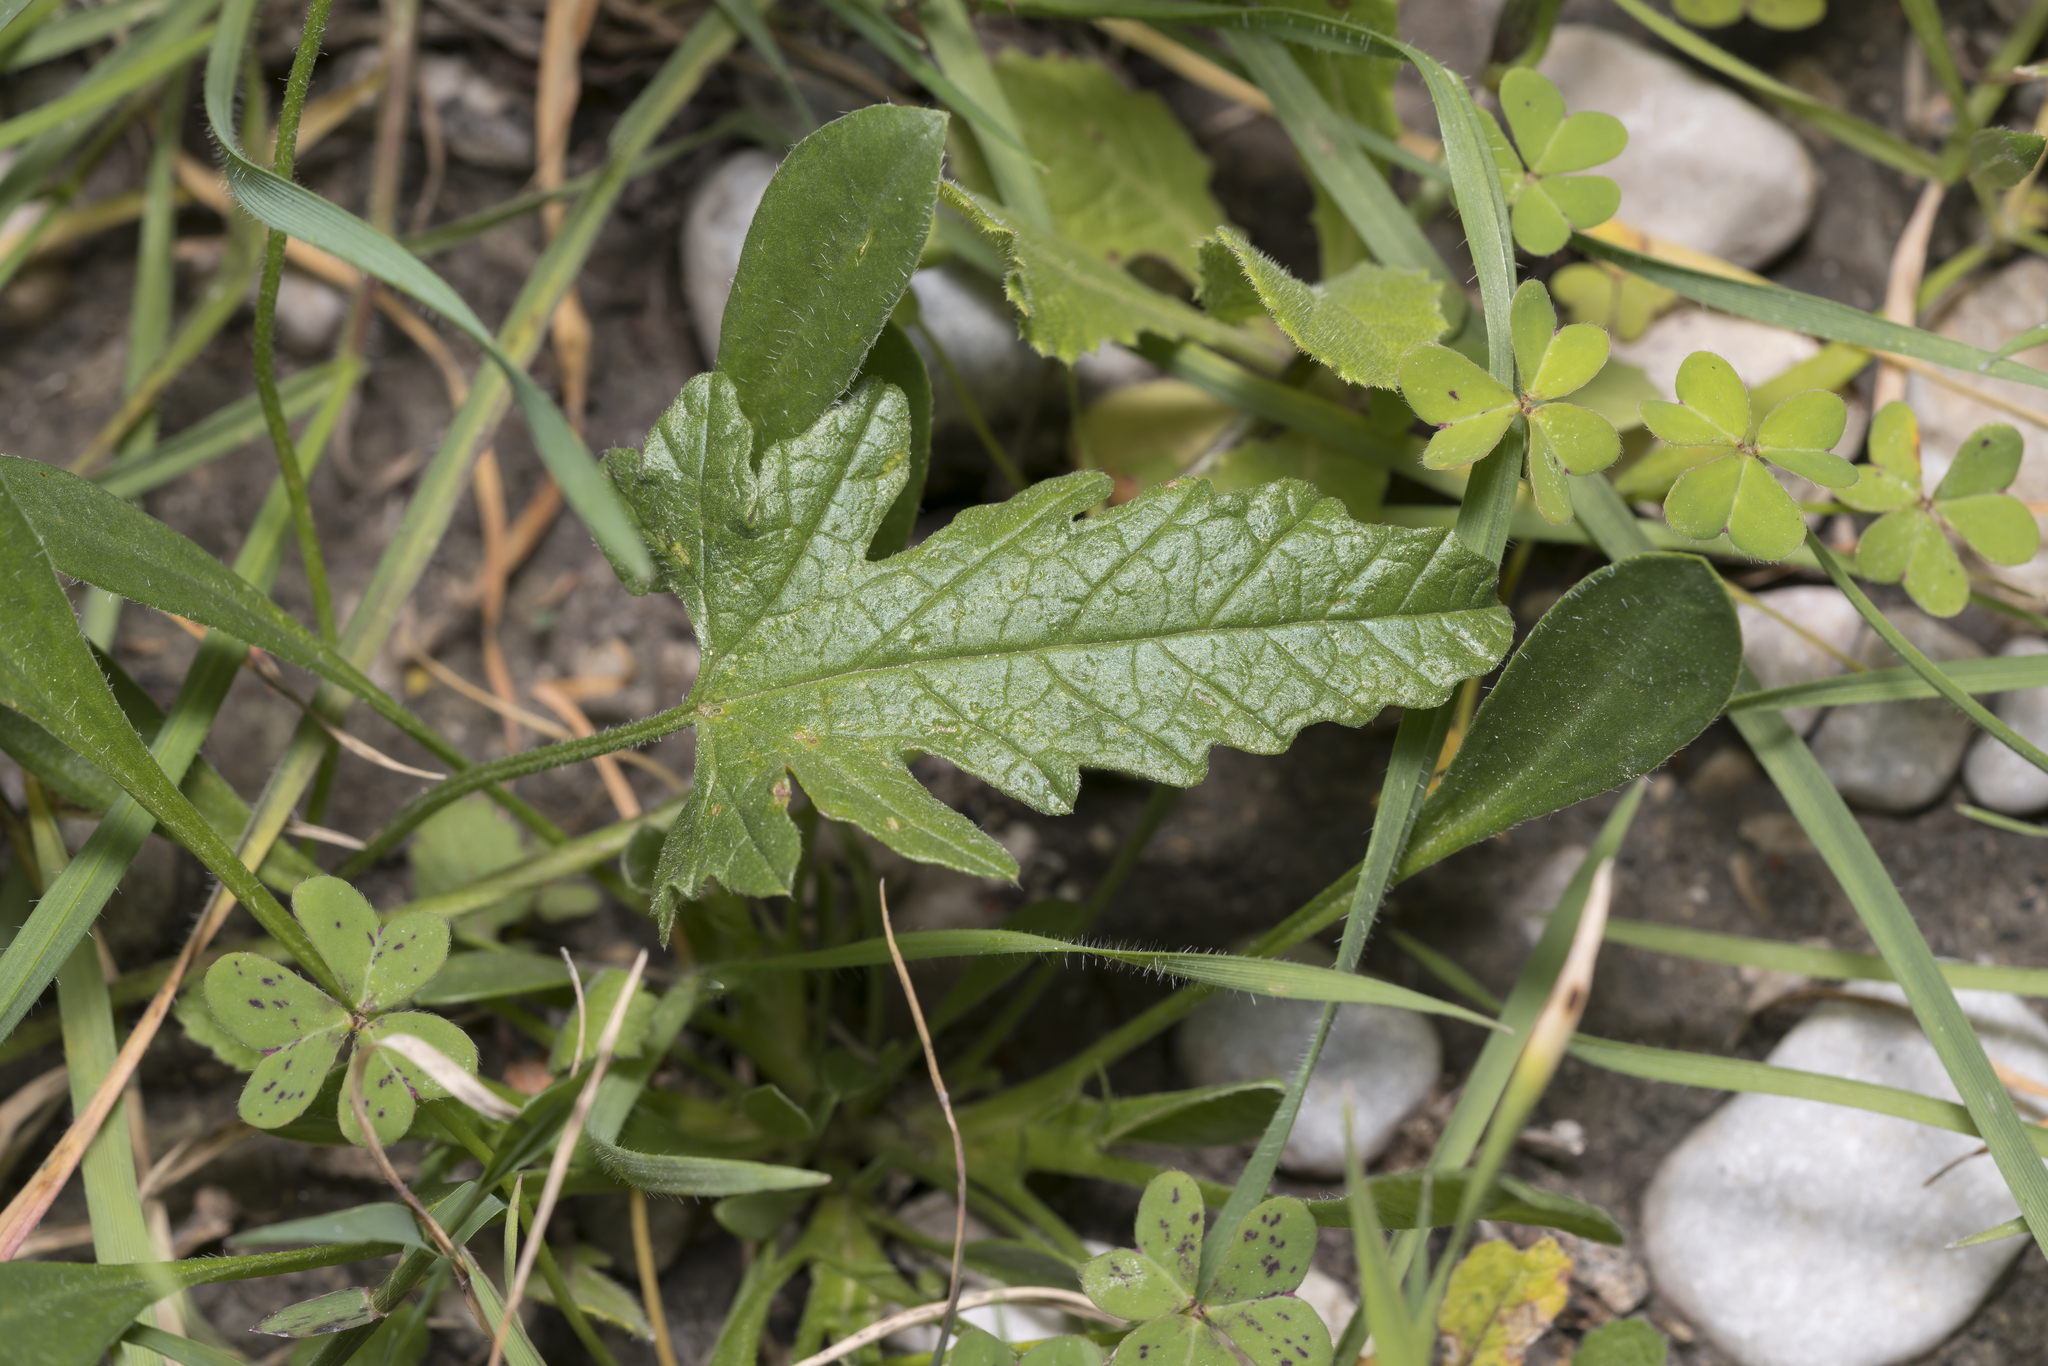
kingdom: Plantae
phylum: Tracheophyta
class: Magnoliopsida
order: Solanales
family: Convolvulaceae
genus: Convolvulus
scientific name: Convolvulus althaeoides
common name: Mallow bindweed
